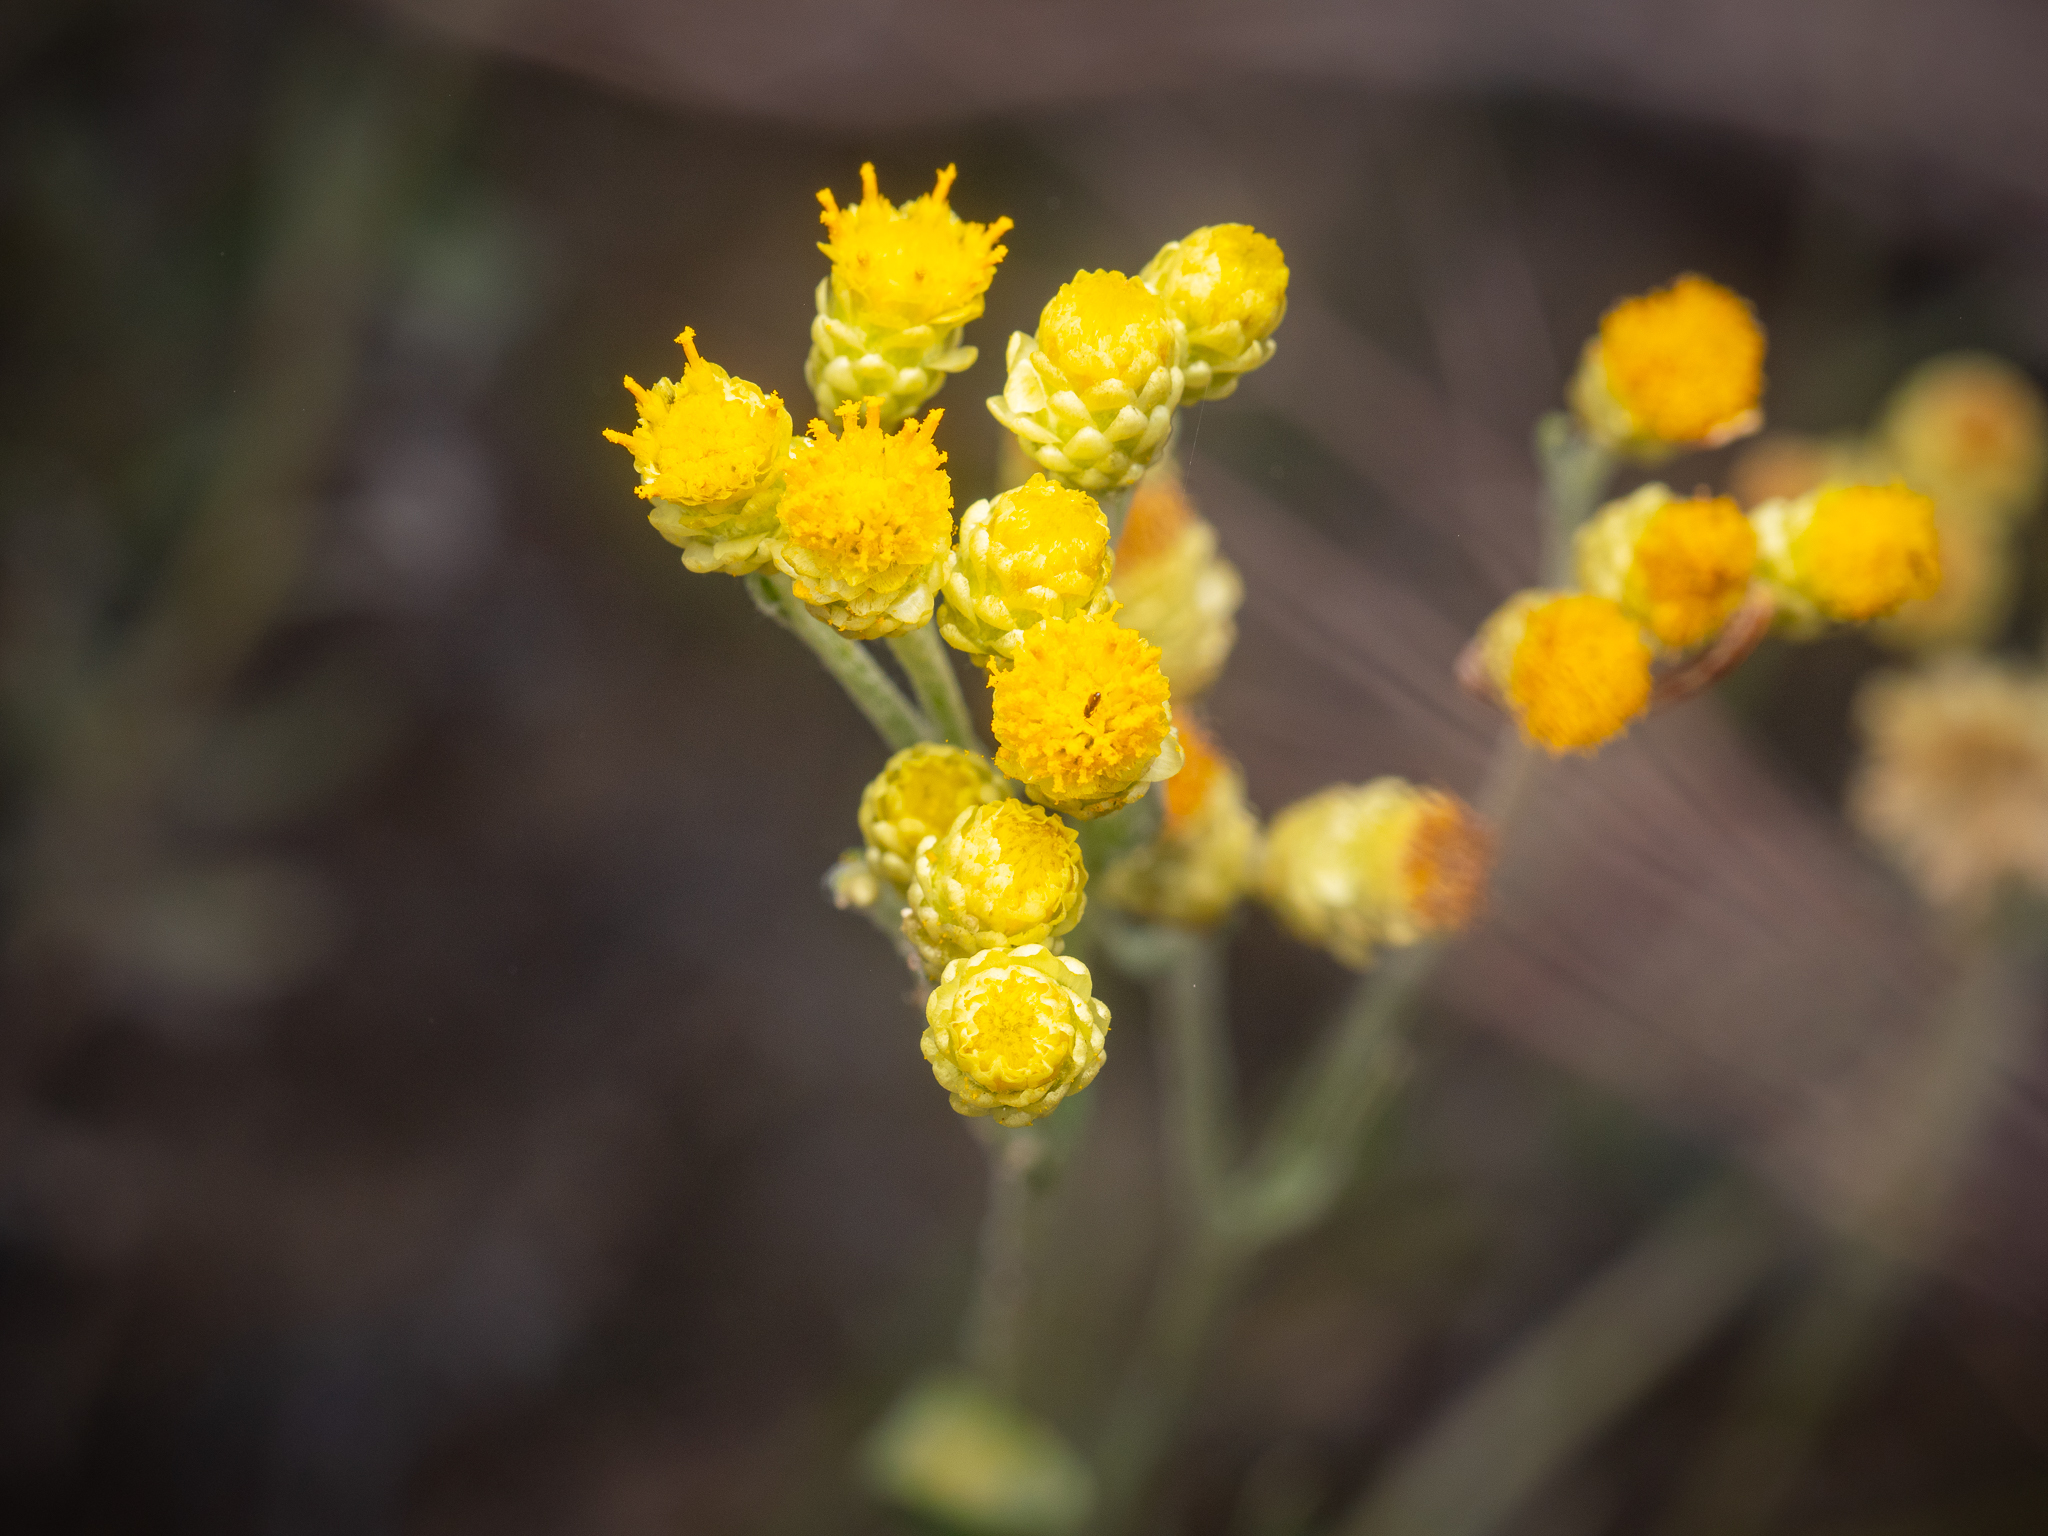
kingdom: Plantae
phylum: Tracheophyta
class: Magnoliopsida
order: Asterales
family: Asteraceae
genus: Helichrysum
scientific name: Helichrysum arenarium
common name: Strawflower
